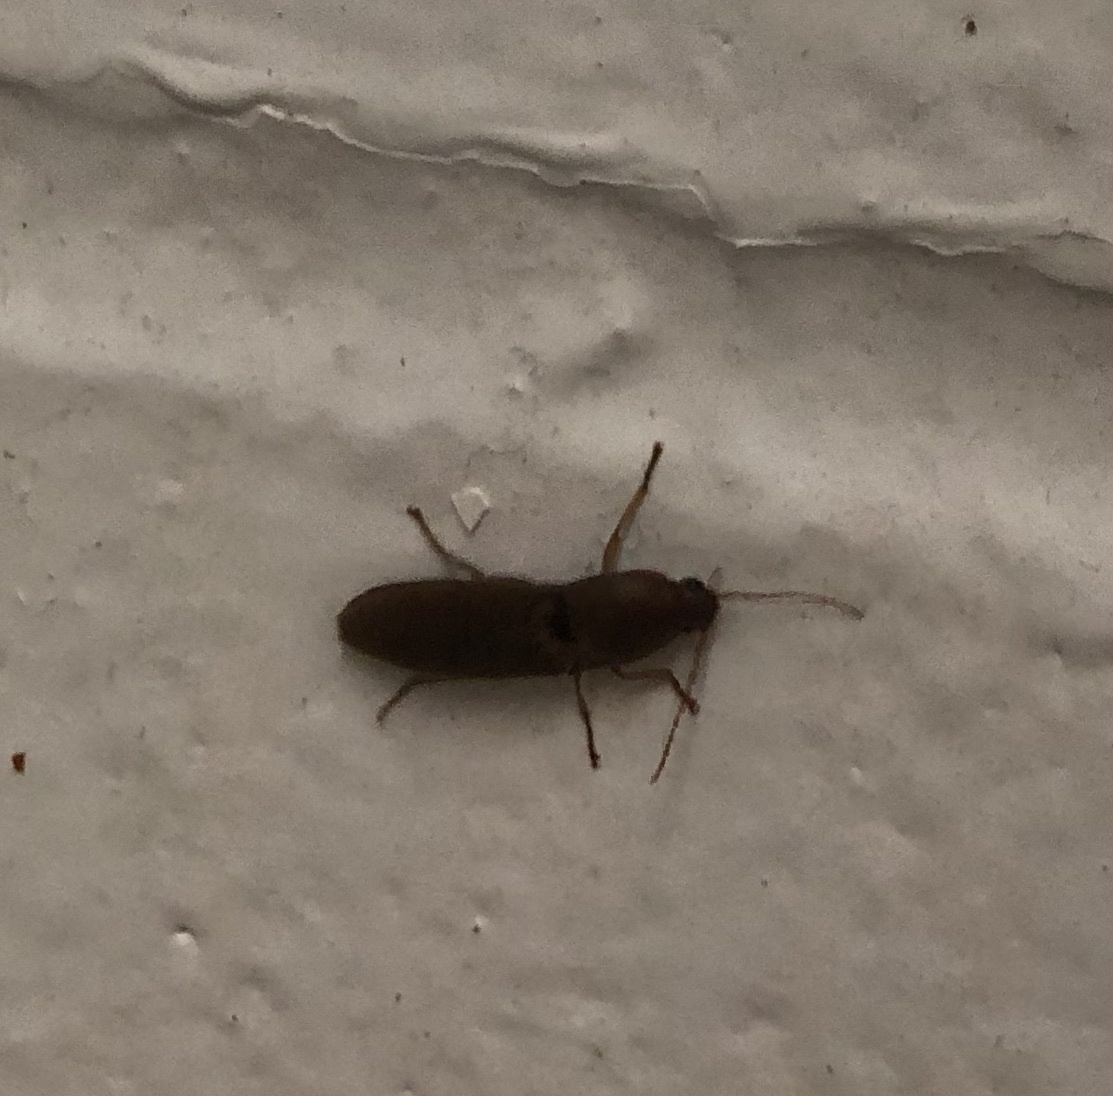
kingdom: Animalia
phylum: Arthropoda
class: Insecta
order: Coleoptera
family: Elateridae
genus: Monocrepidius
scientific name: Monocrepidius lividus
